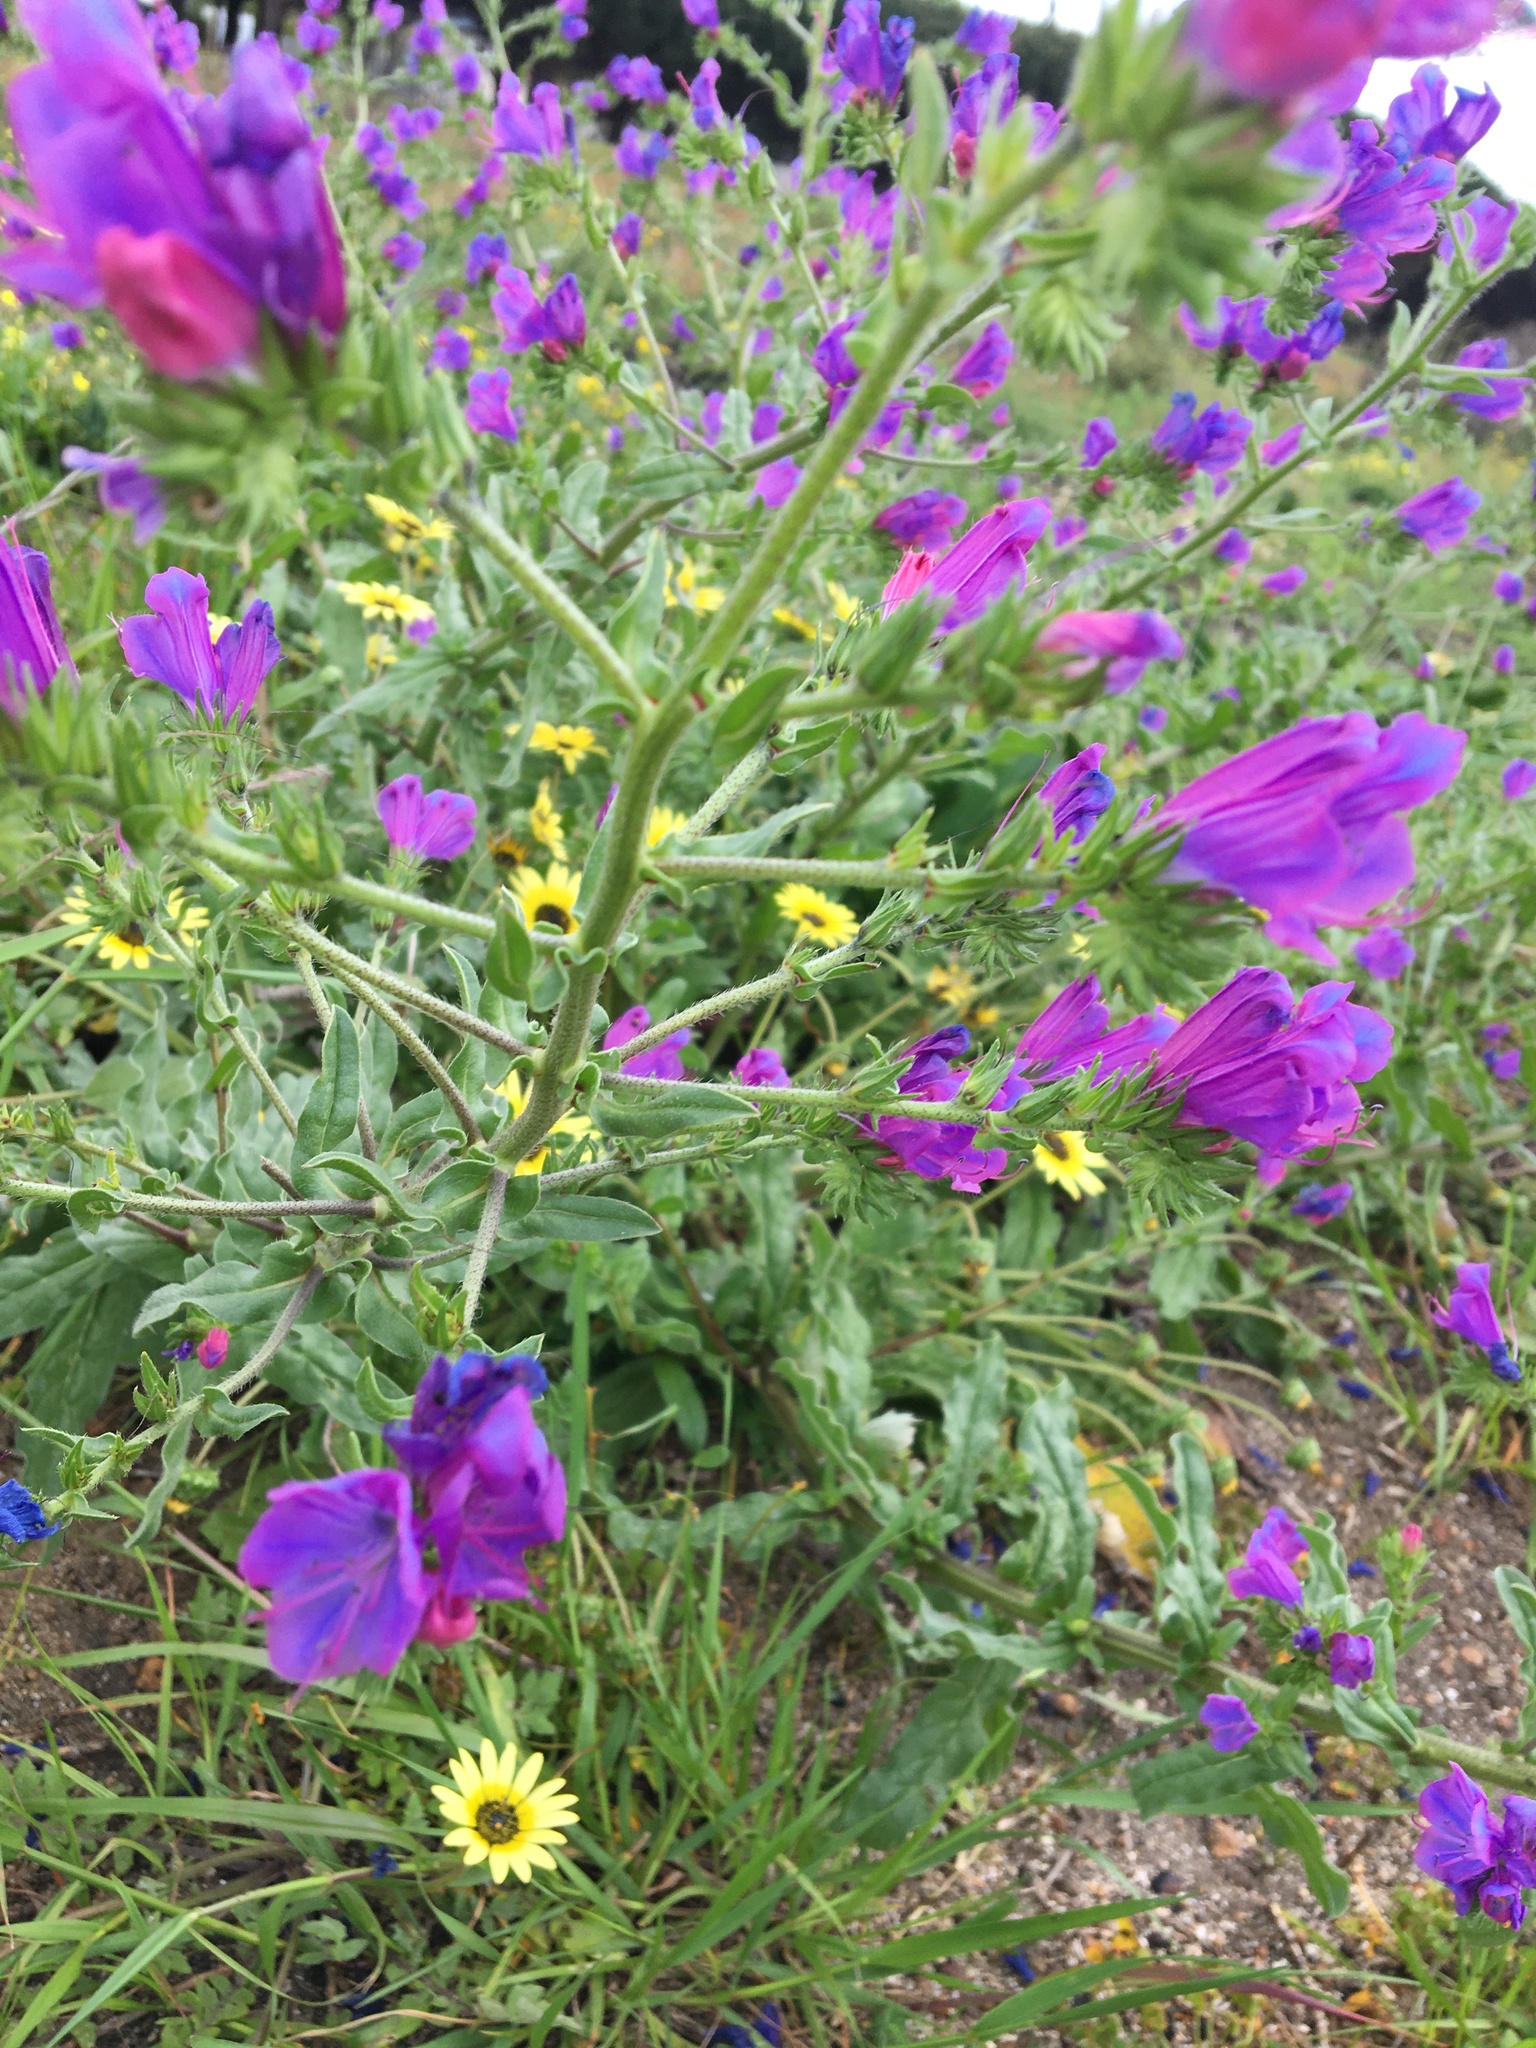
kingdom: Plantae
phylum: Tracheophyta
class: Magnoliopsida
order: Boraginales
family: Boraginaceae
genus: Echium
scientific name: Echium plantagineum
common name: Purple viper's-bugloss
